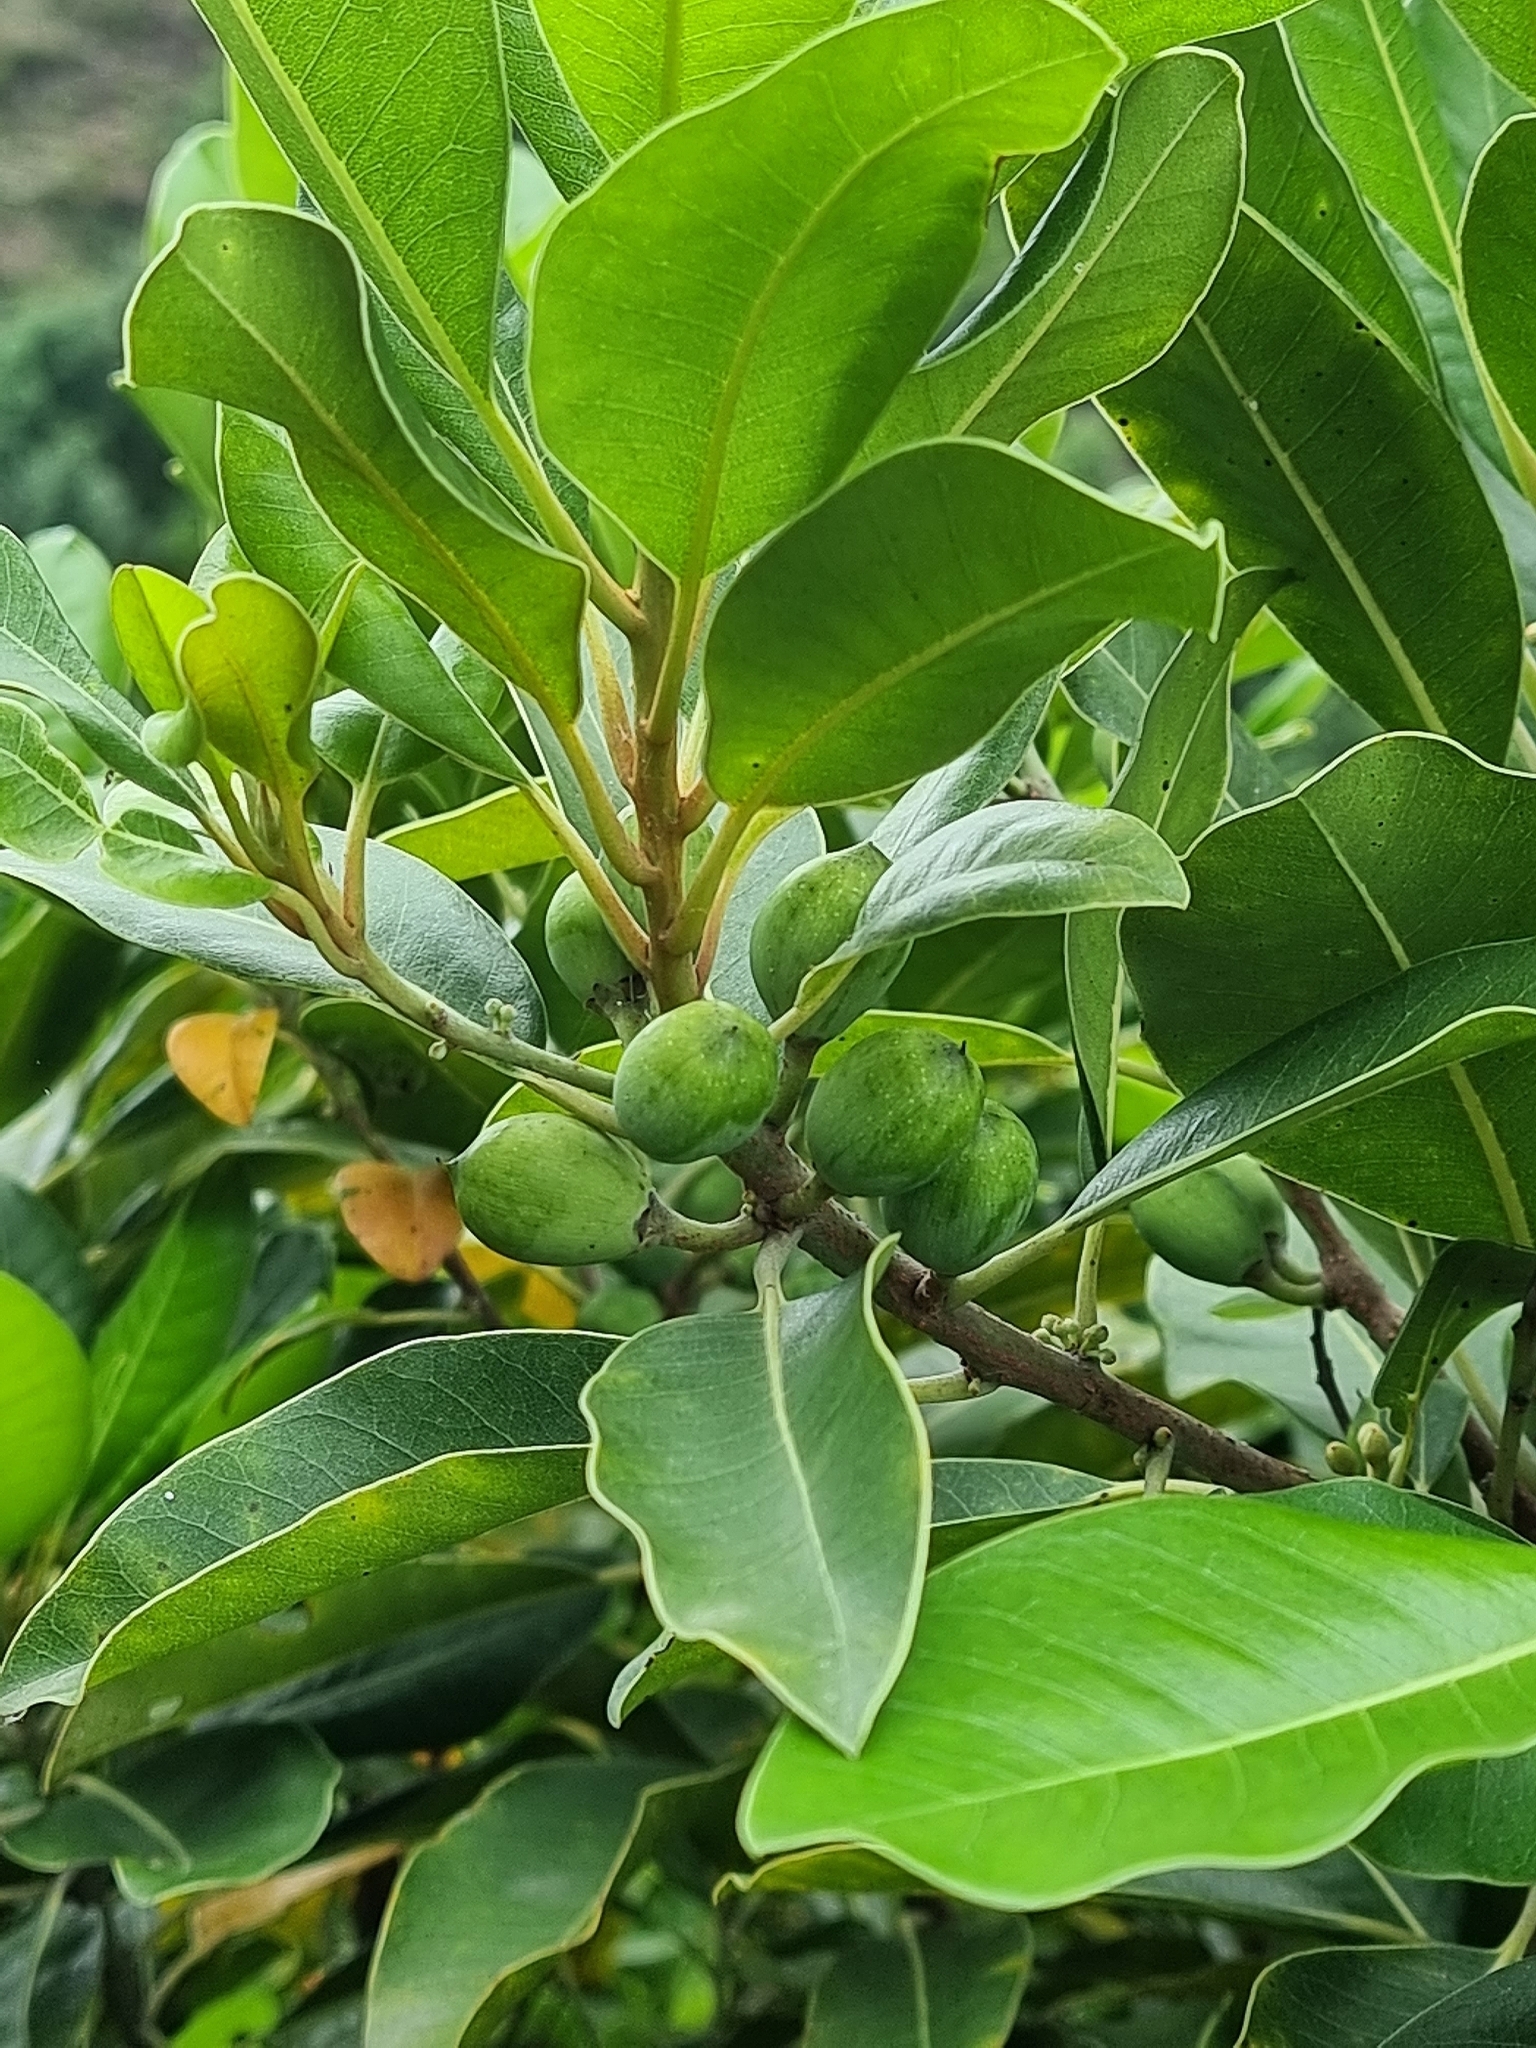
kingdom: Plantae
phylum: Tracheophyta
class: Magnoliopsida
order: Ericales
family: Sapotaceae
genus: Sideroxylon
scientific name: Sideroxylon mirmulans
